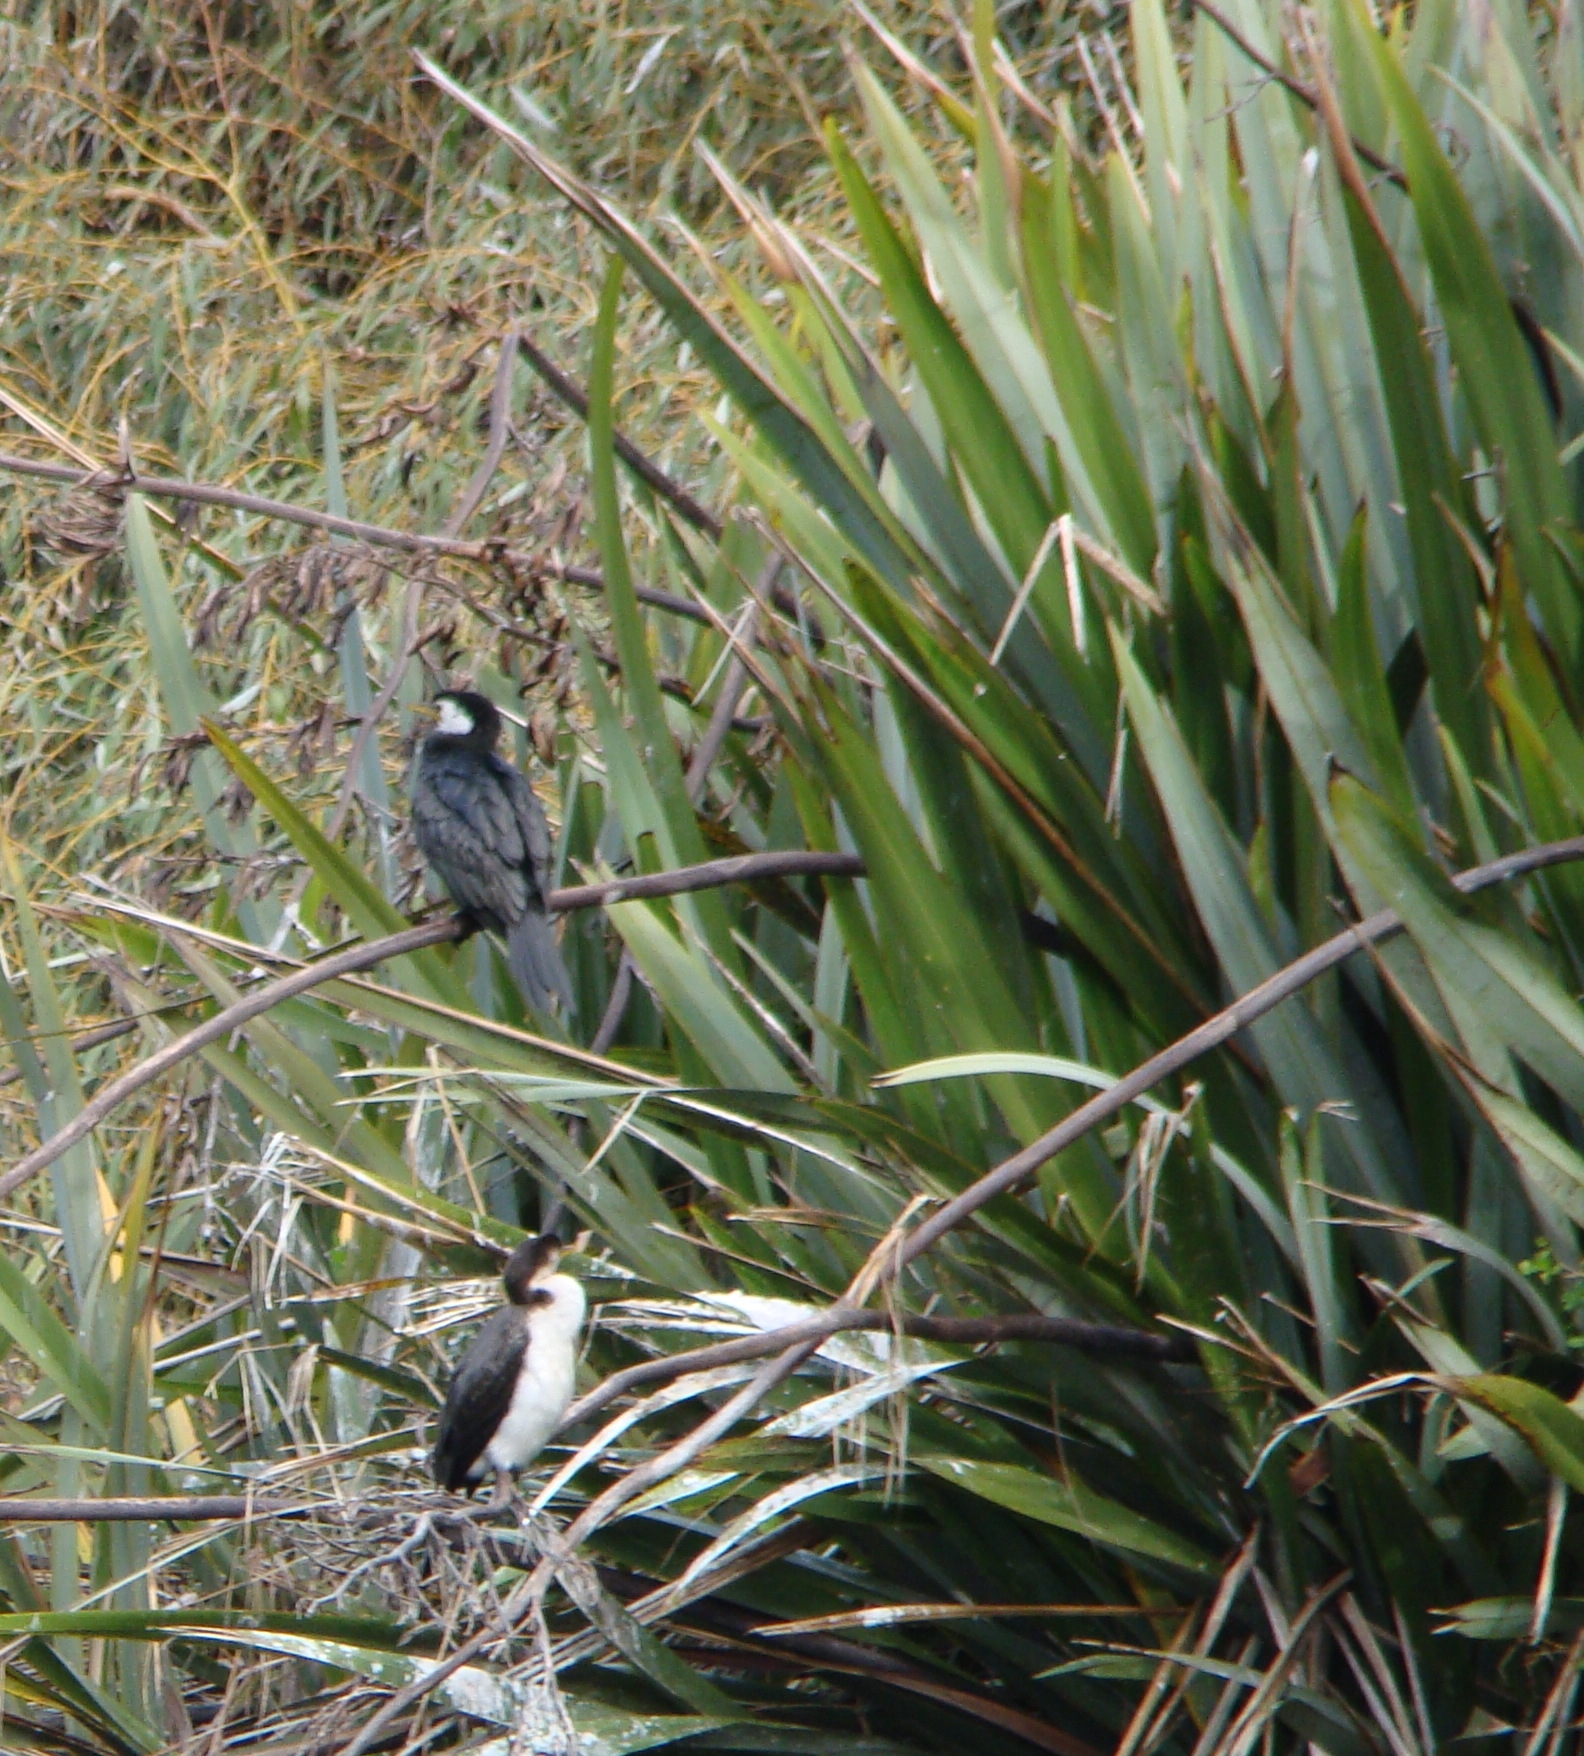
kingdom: Animalia
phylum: Chordata
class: Aves
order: Suliformes
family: Phalacrocoracidae
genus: Microcarbo
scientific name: Microcarbo melanoleucos
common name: Little pied cormorant
